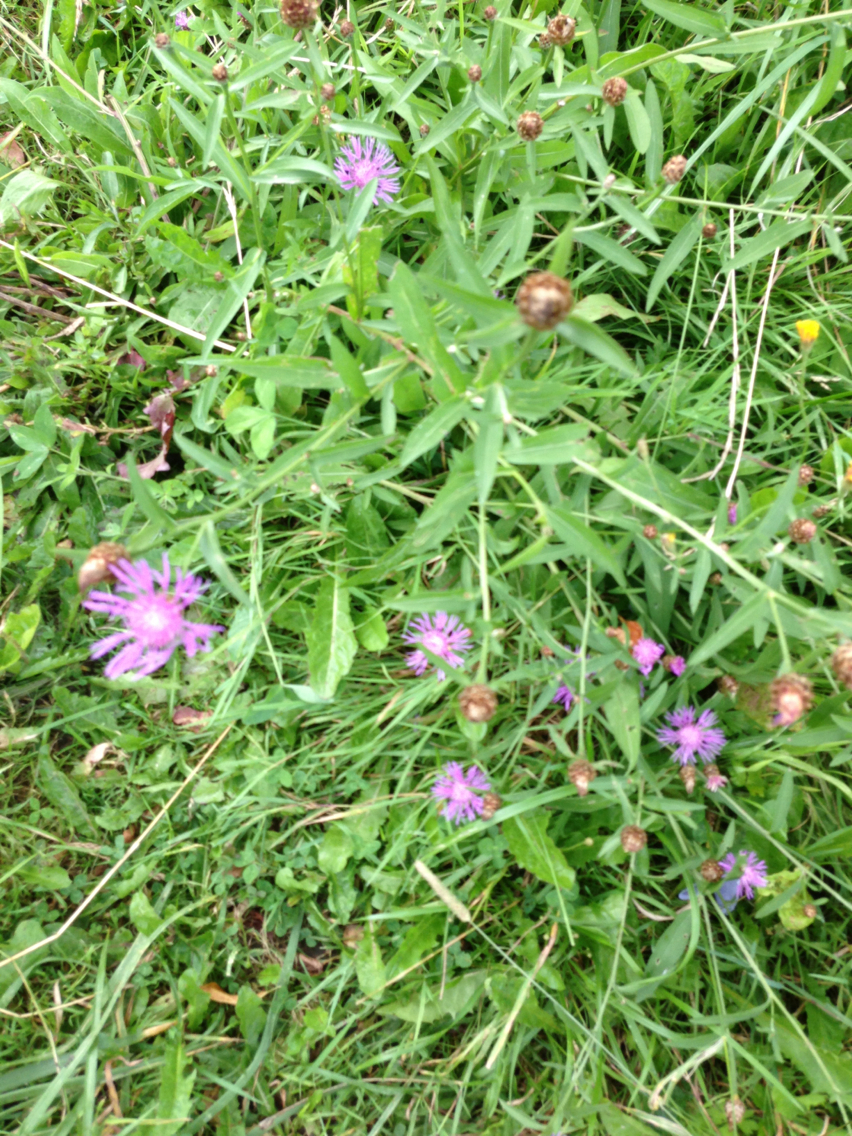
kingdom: Plantae
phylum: Tracheophyta
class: Magnoliopsida
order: Asterales
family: Asteraceae
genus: Centaurea
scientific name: Centaurea jacea
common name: Brown knapweed
